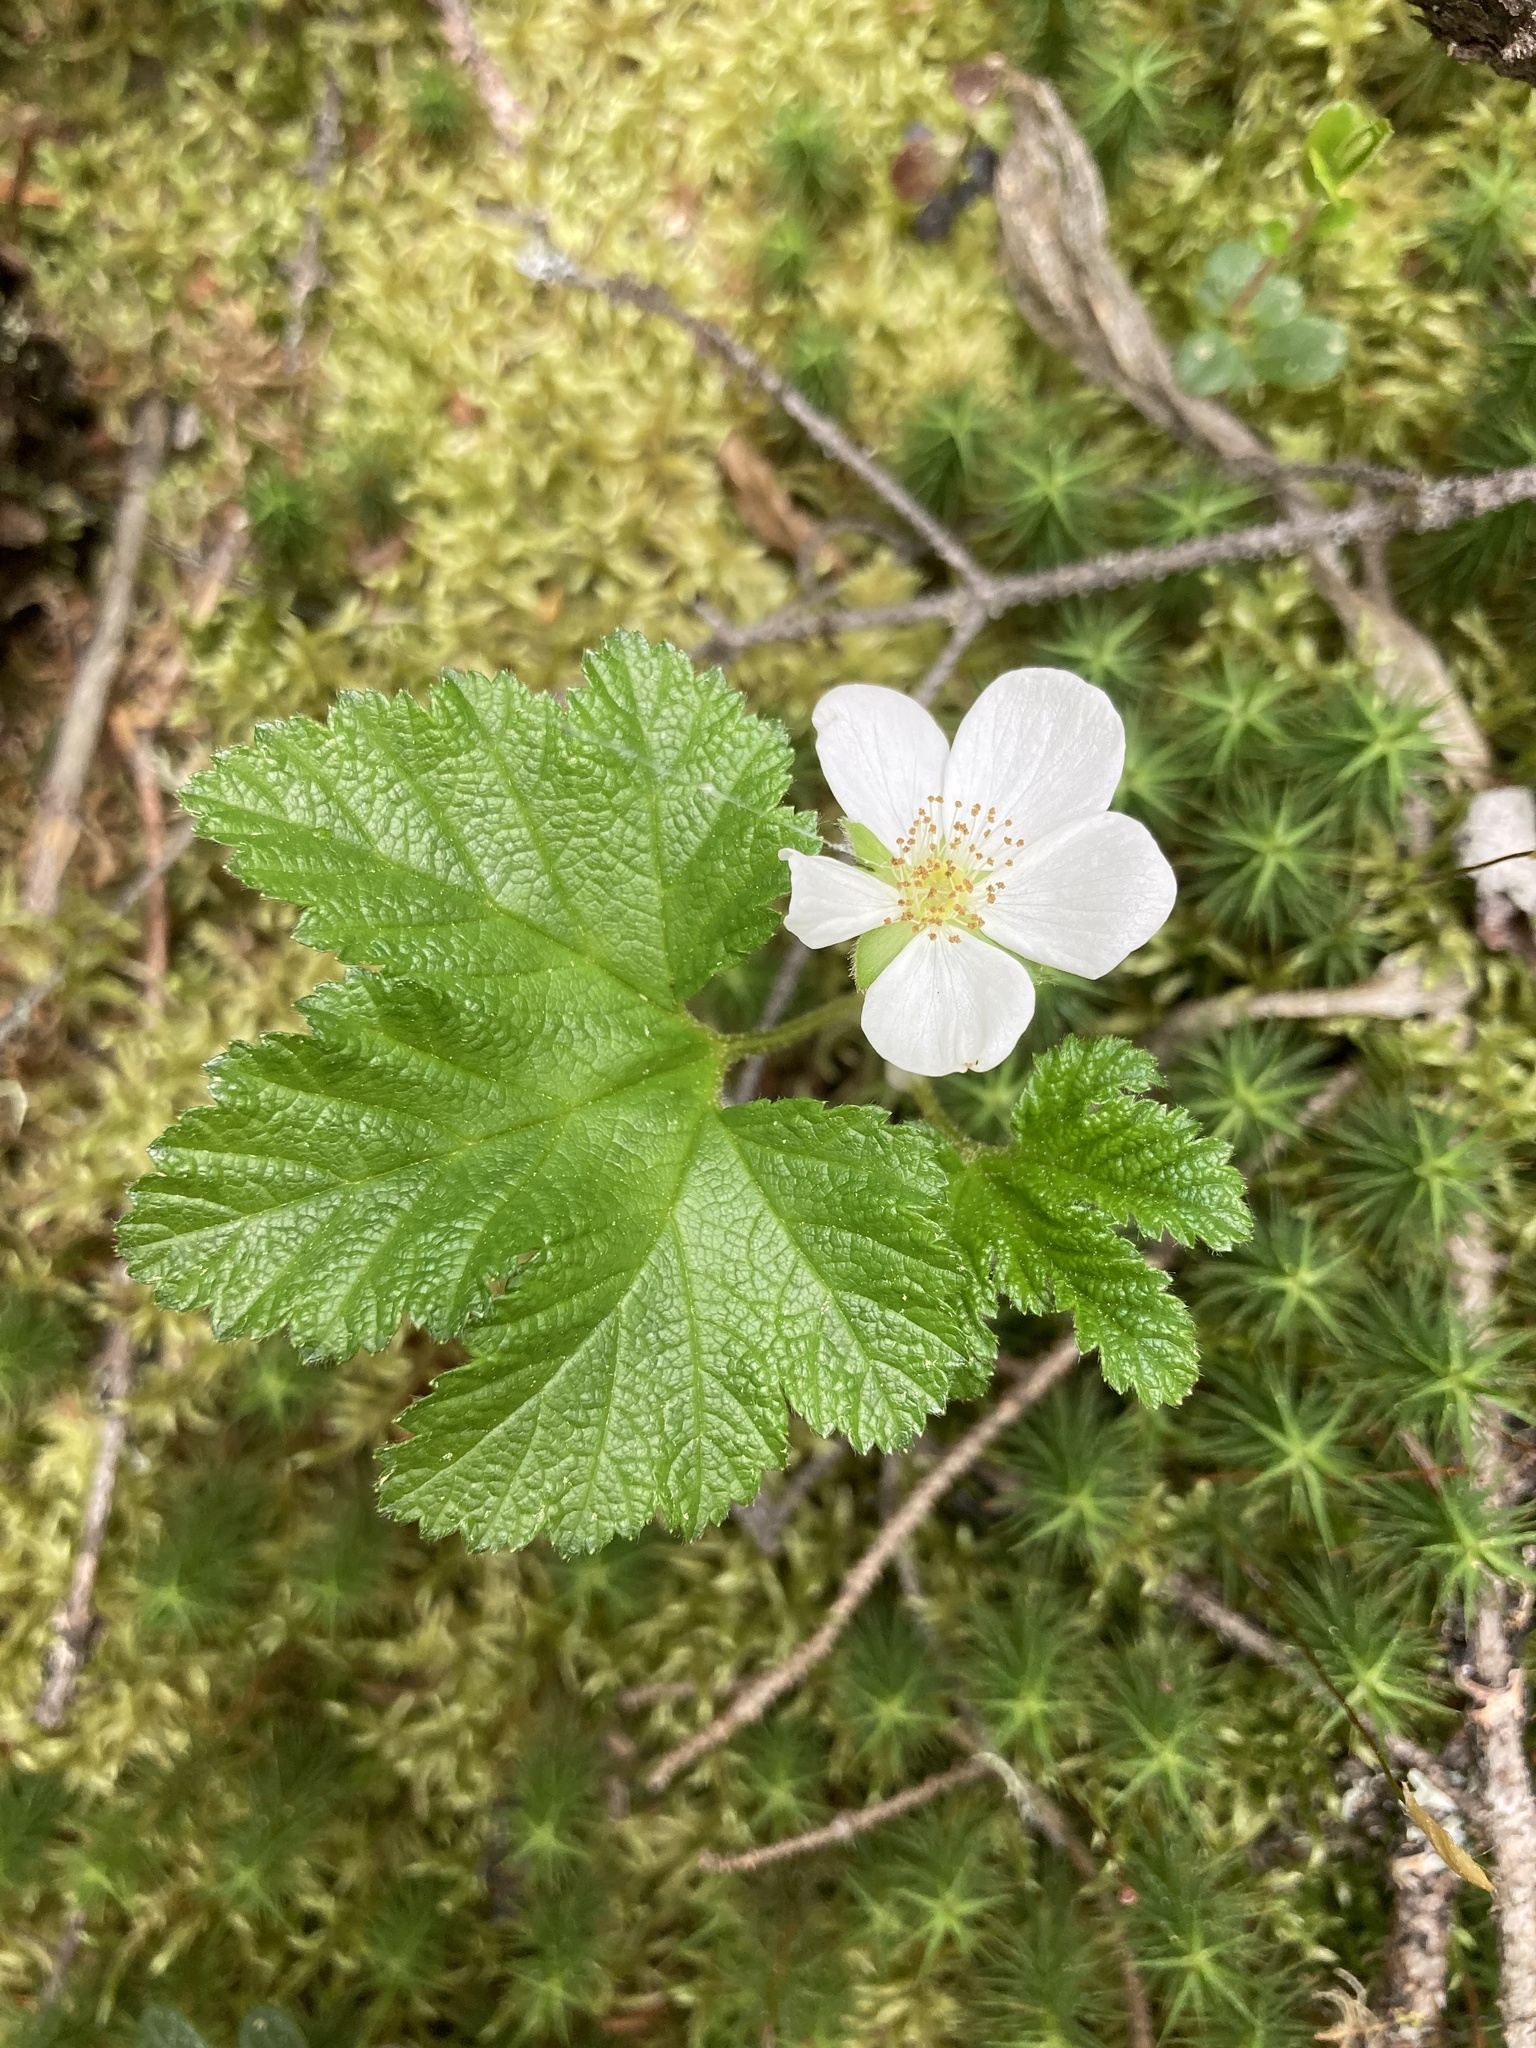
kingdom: Plantae
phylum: Tracheophyta
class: Magnoliopsida
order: Rosales
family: Rosaceae
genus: Rubus
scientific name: Rubus chamaemorus
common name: Cloudberry
